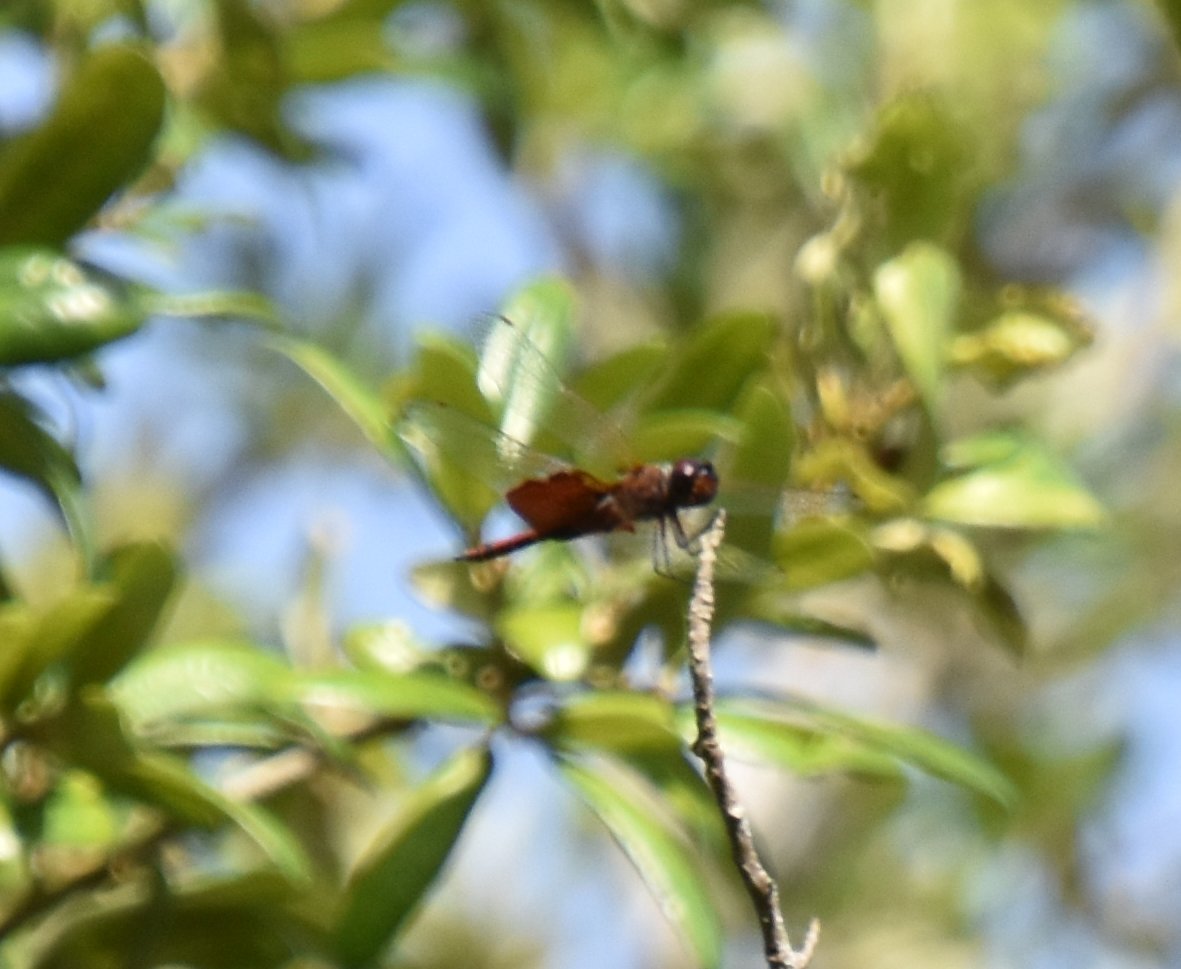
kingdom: Animalia
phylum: Arthropoda
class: Insecta
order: Odonata
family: Libellulidae
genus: Tramea
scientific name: Tramea carolina
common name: Carolina saddlebags
